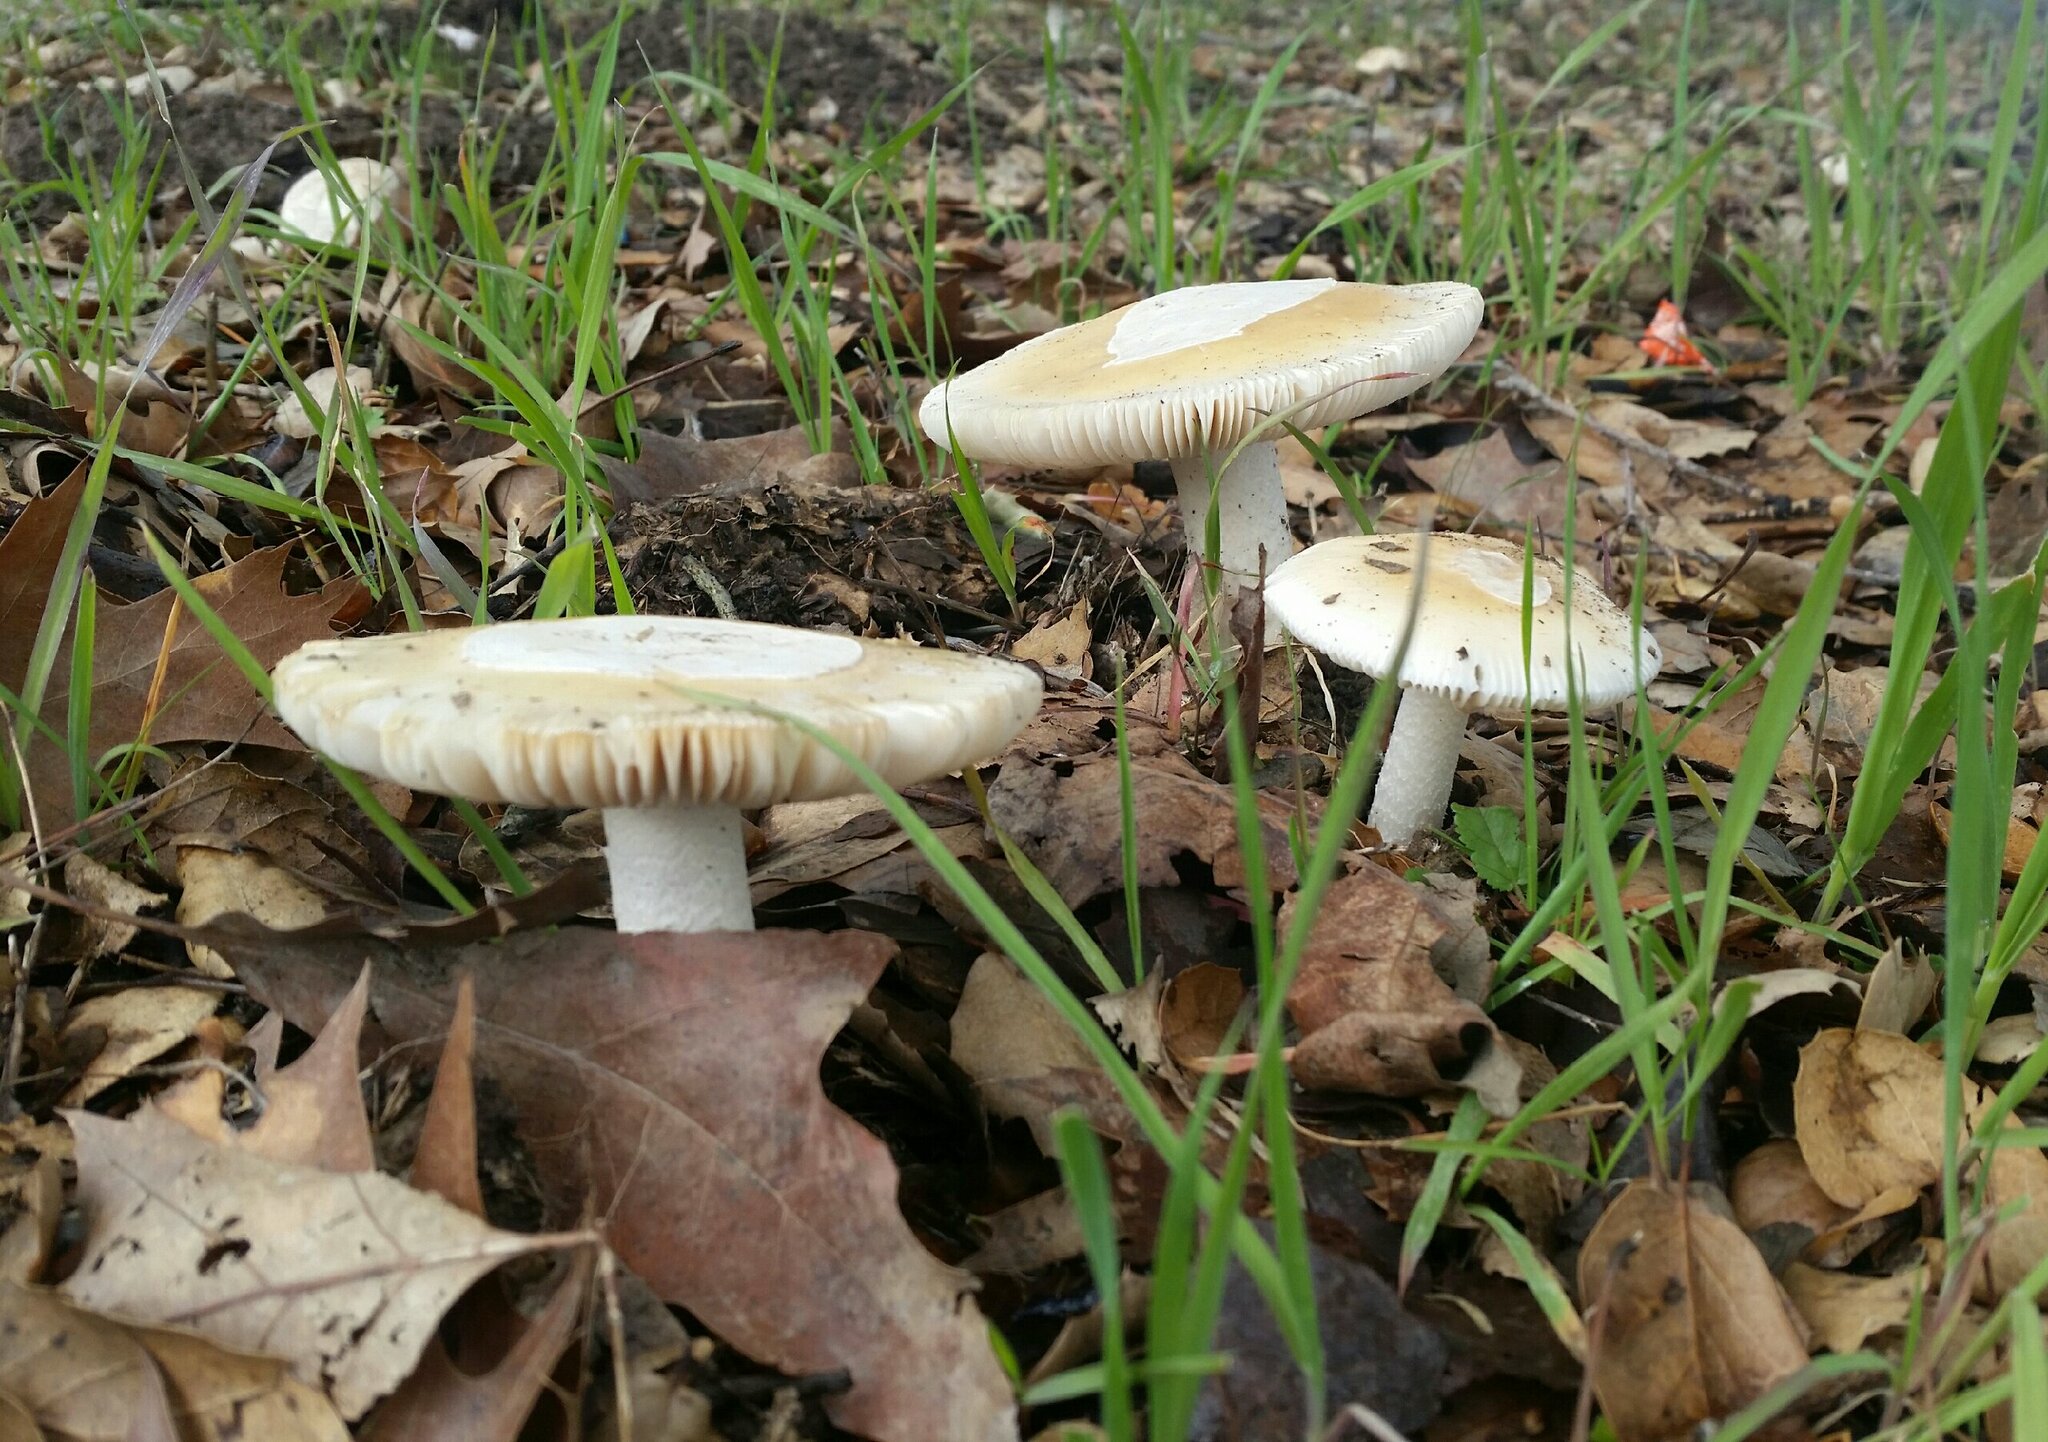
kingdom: Fungi
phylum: Basidiomycota
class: Agaricomycetes
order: Agaricales
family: Amanitaceae
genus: Amanita
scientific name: Amanita velosa
